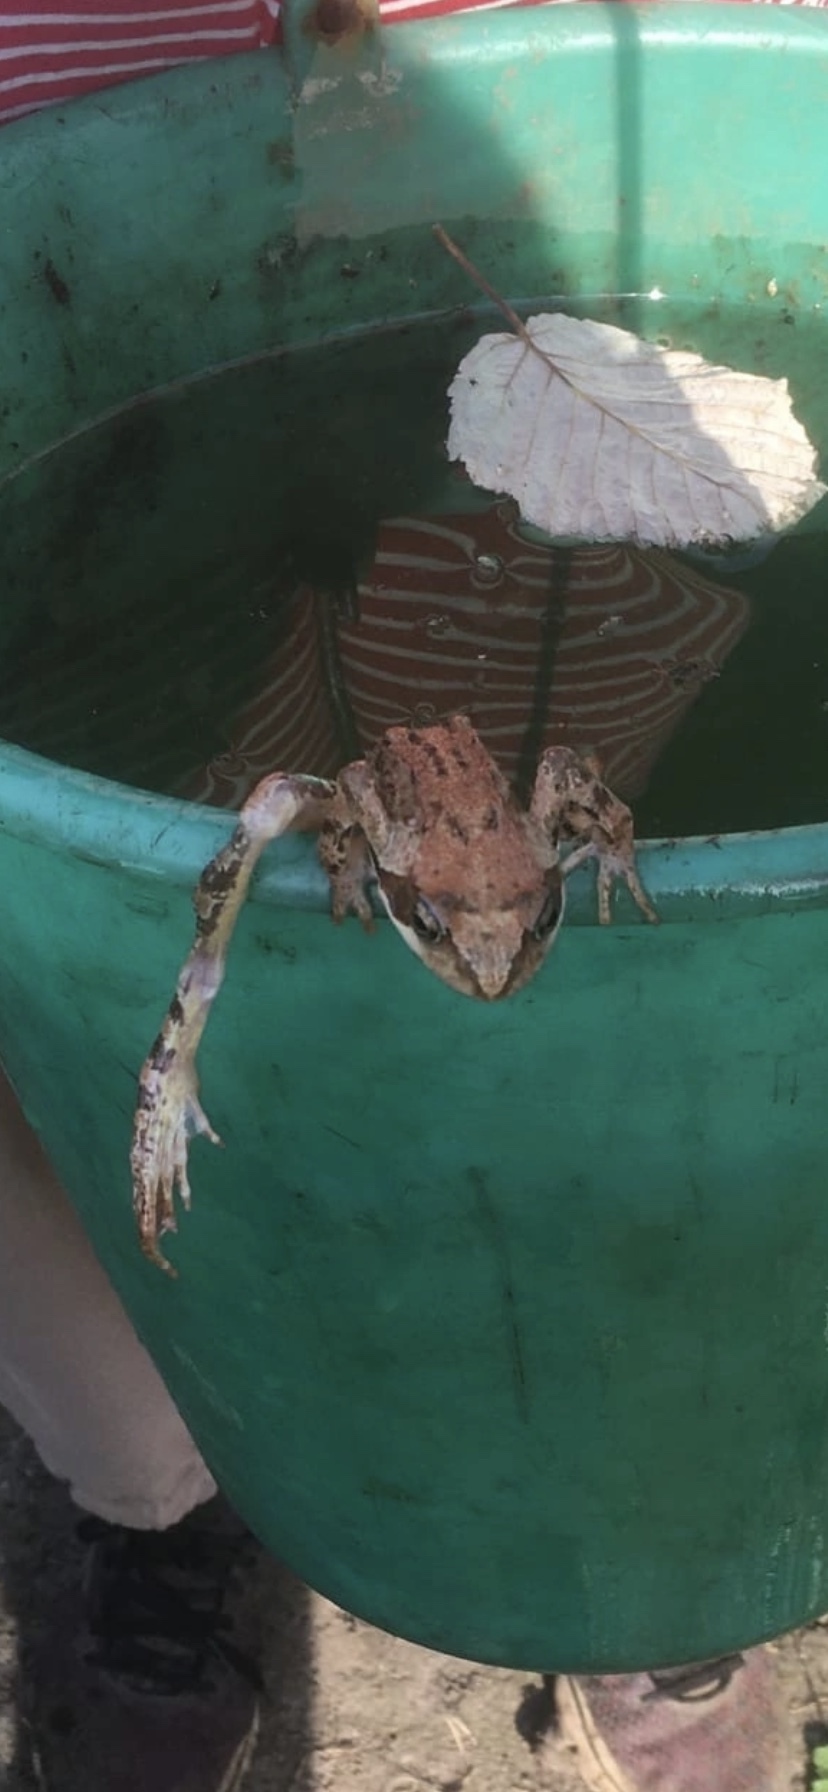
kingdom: Animalia
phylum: Chordata
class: Amphibia
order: Anura
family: Ranidae
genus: Rana
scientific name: Rana temporaria
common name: Common frog
